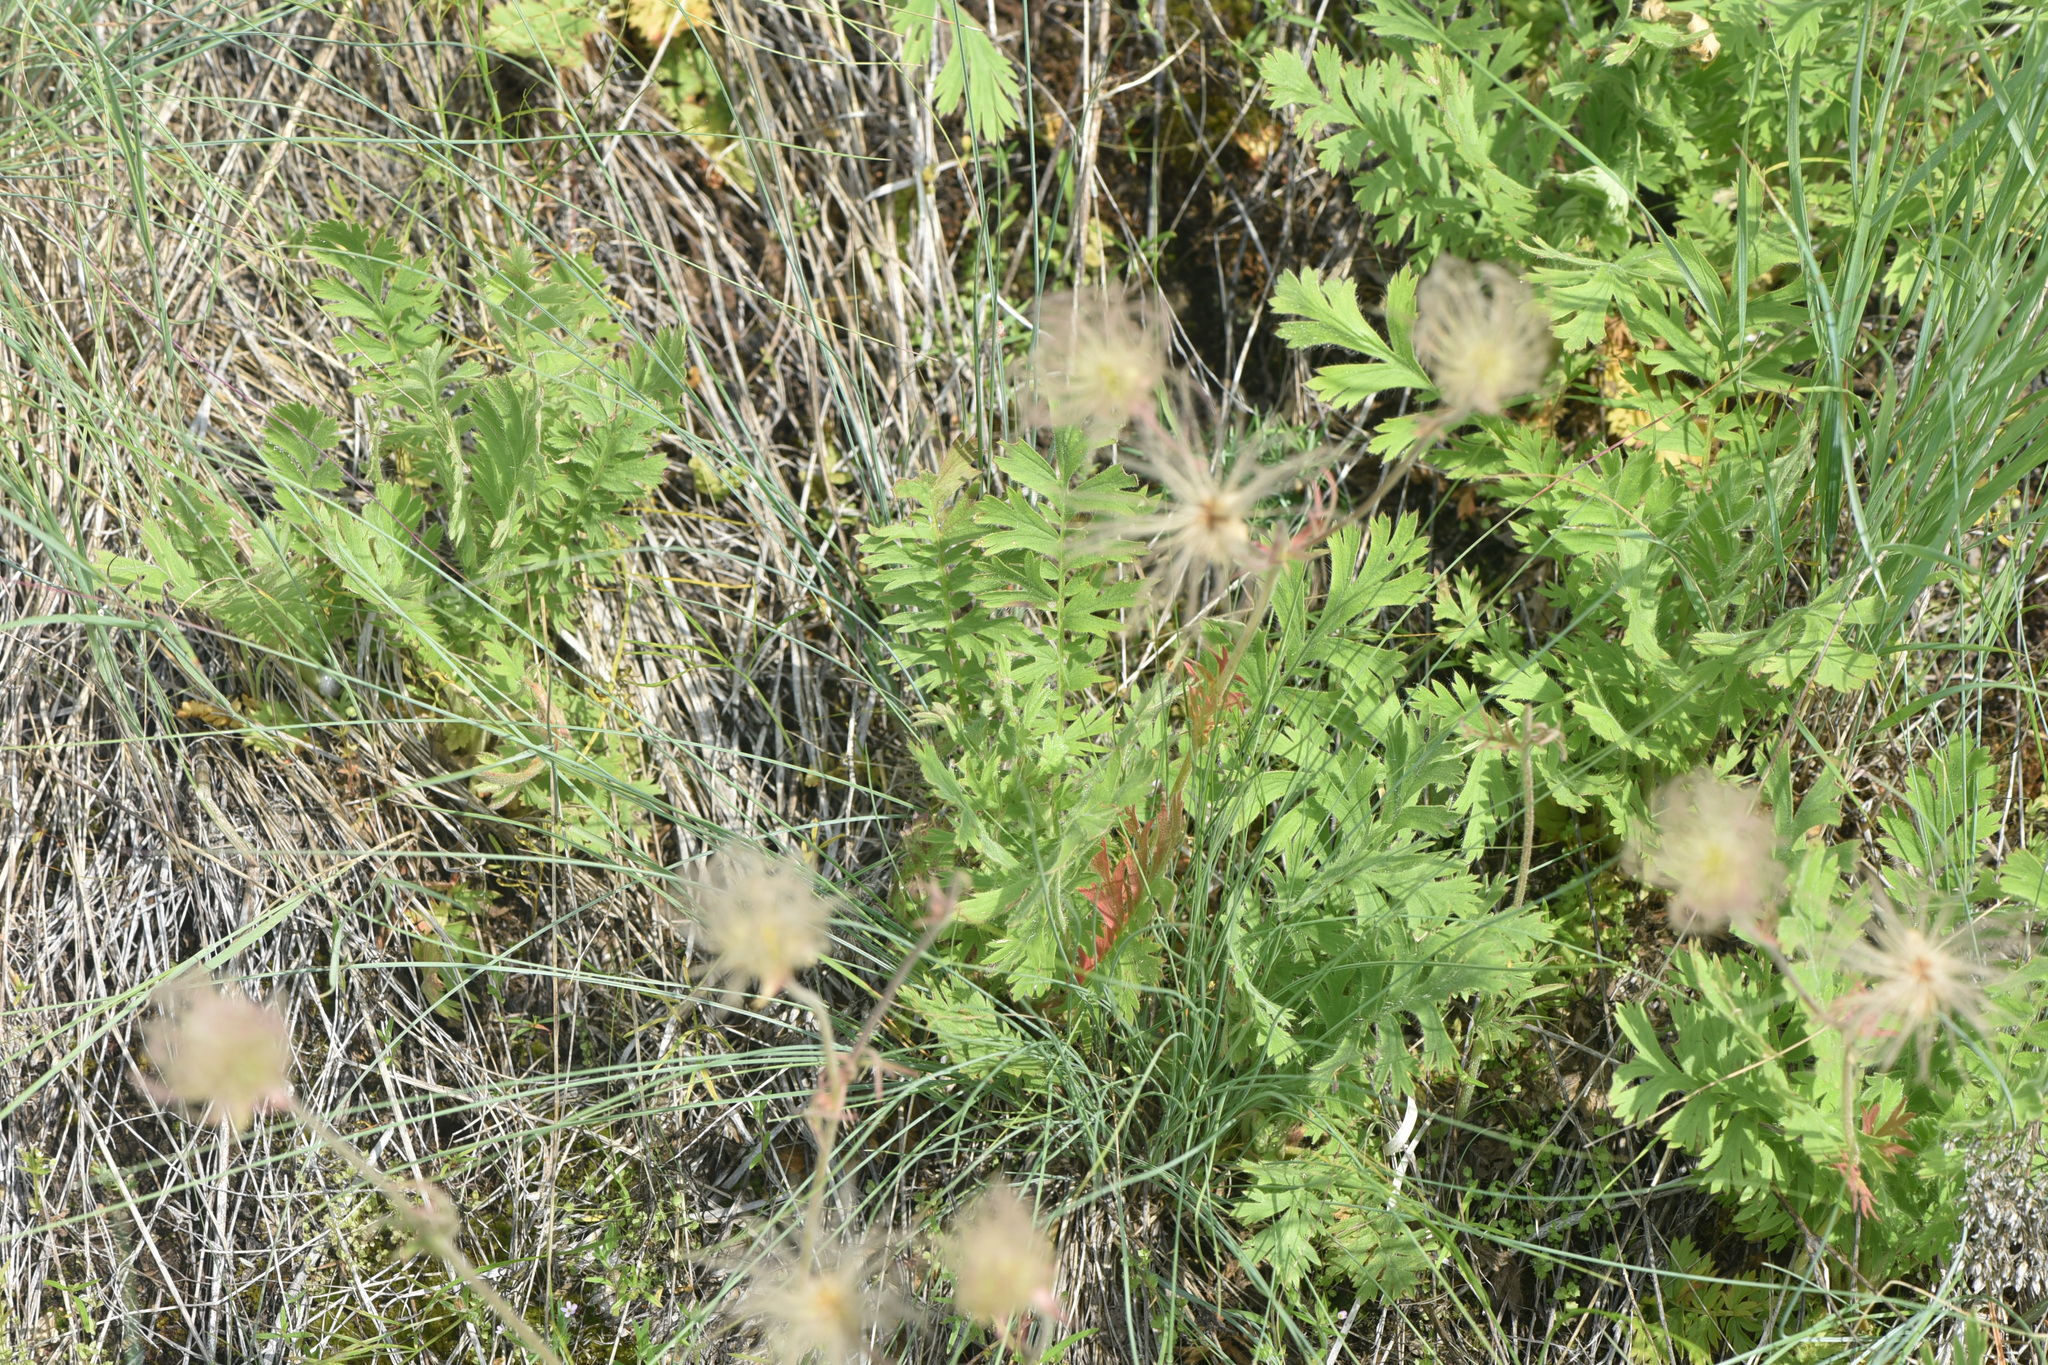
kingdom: Plantae
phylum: Tracheophyta
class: Magnoliopsida
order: Rosales
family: Rosaceae
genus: Geum
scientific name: Geum triflorum
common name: Old man's whiskers
